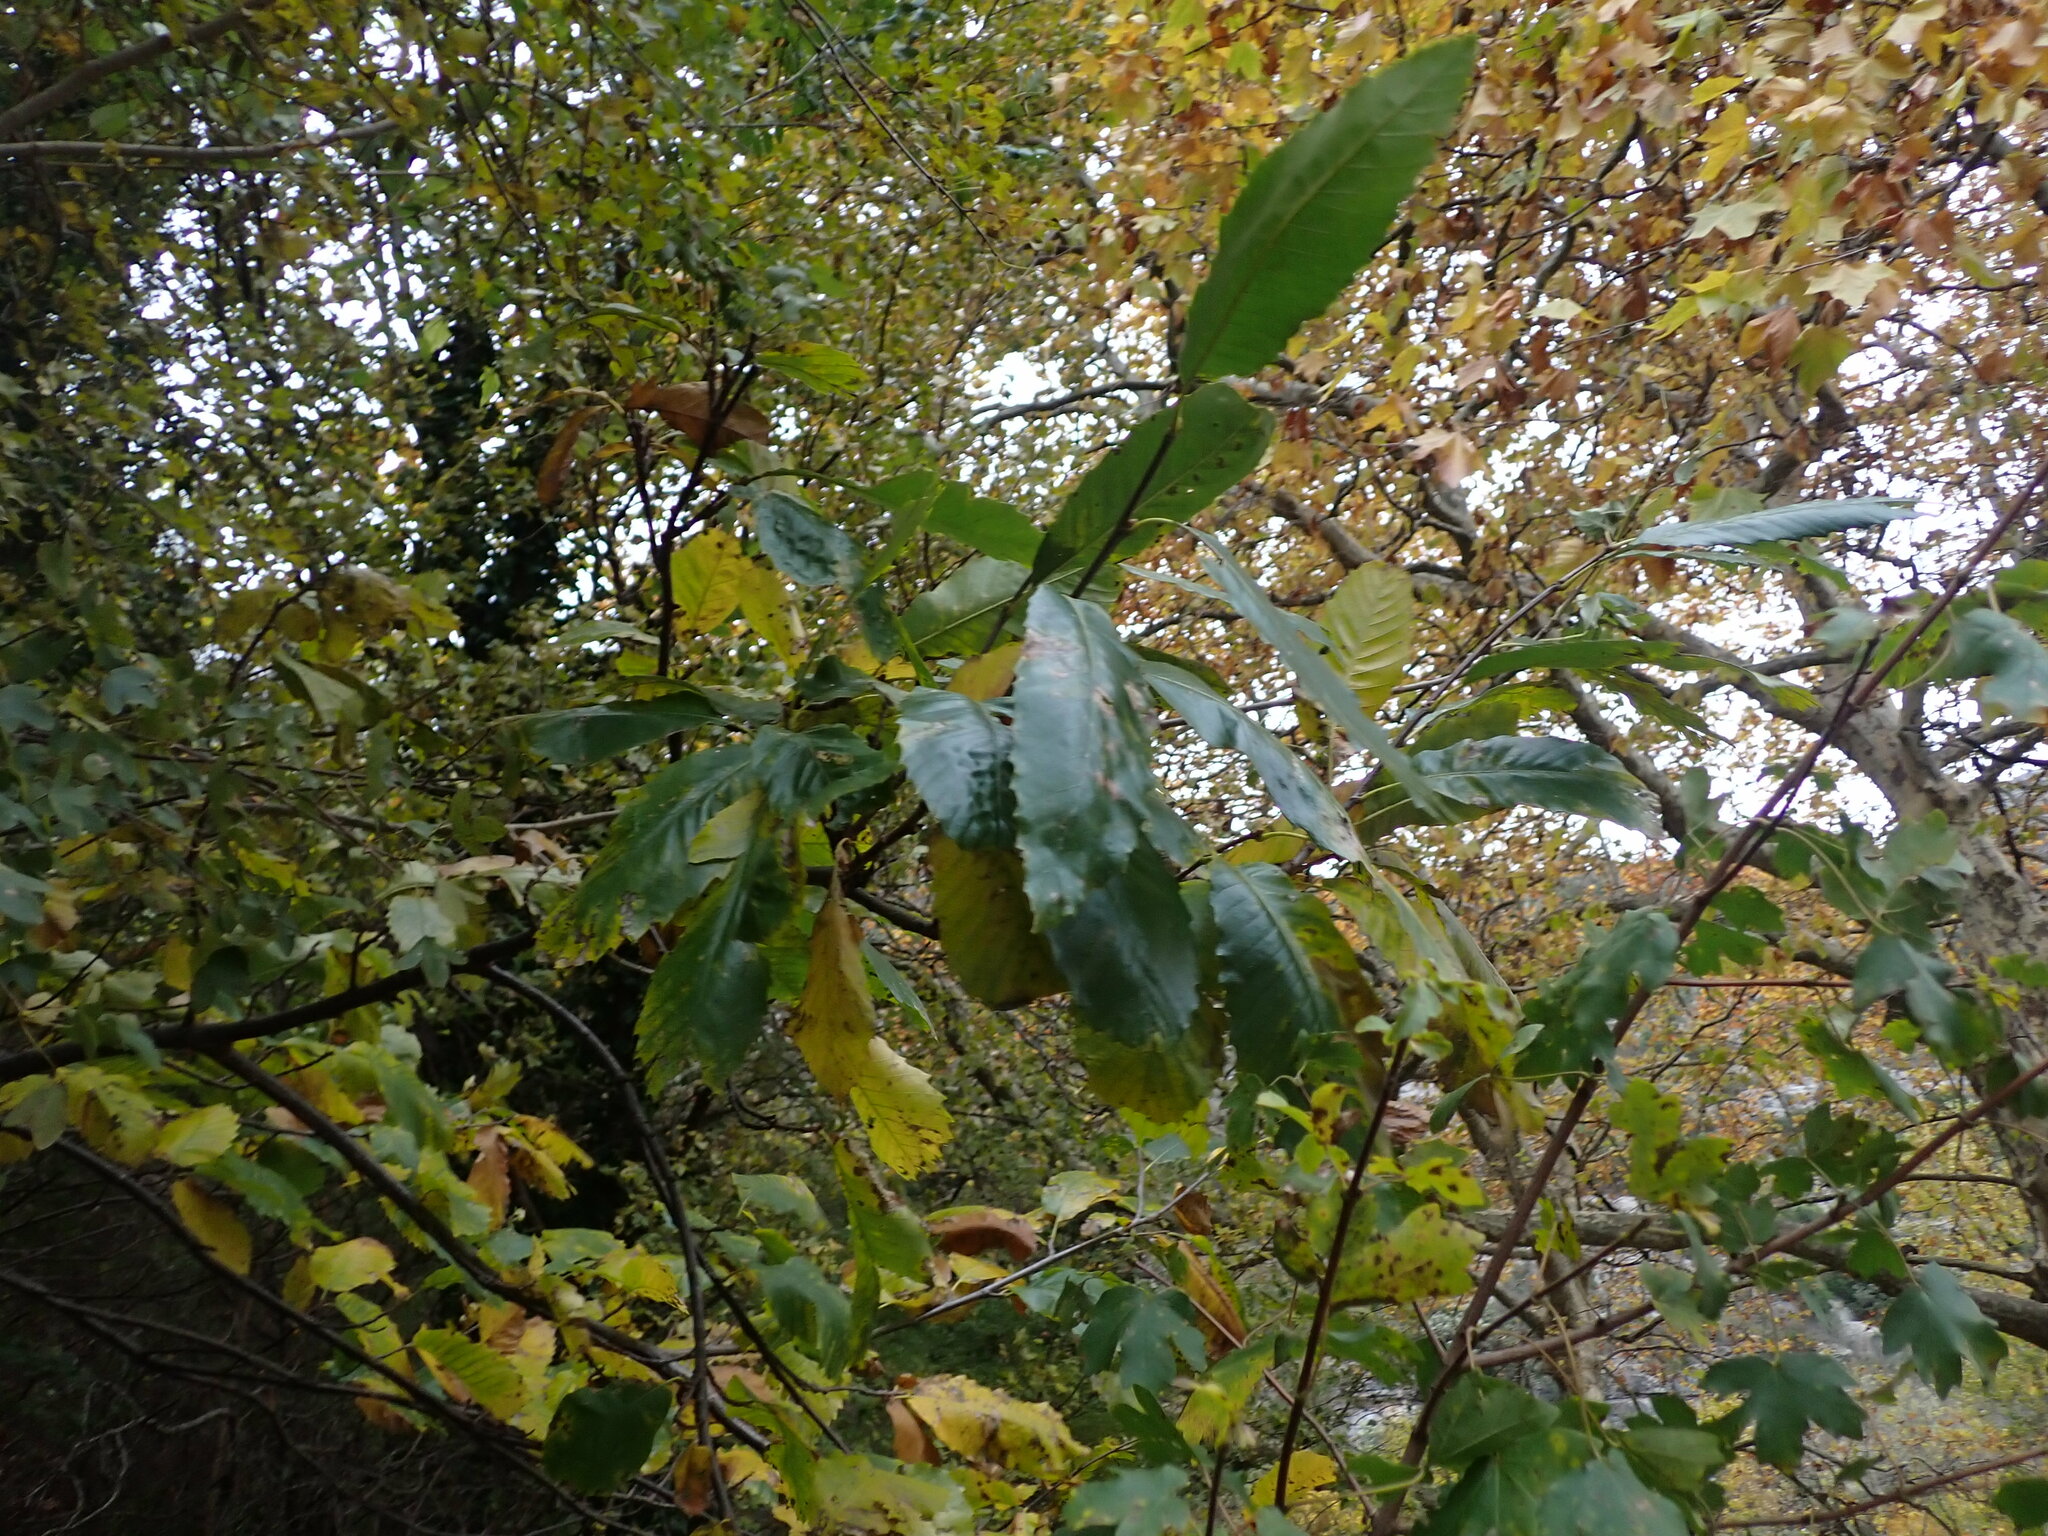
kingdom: Plantae
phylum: Tracheophyta
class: Magnoliopsida
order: Fagales
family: Fagaceae
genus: Castanea
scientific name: Castanea sativa
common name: Sweet chestnut
